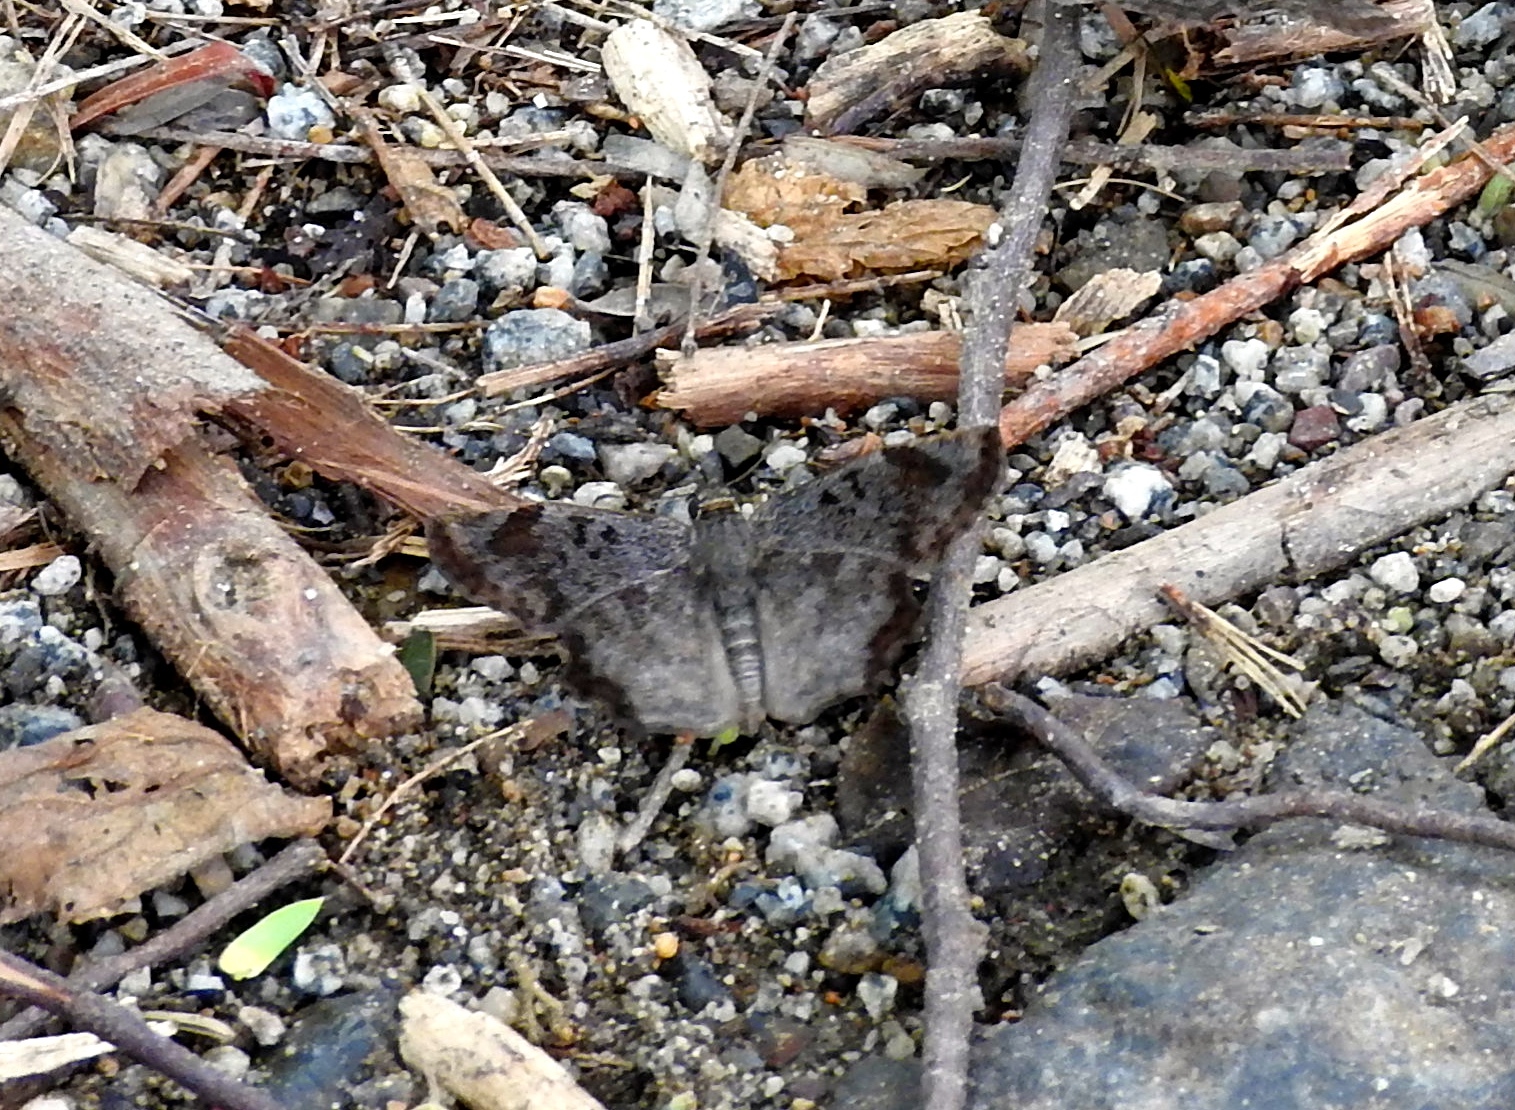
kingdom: Animalia
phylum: Arthropoda
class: Insecta
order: Lepidoptera
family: Hesperiidae
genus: Antigonus
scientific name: Antigonus erosus
